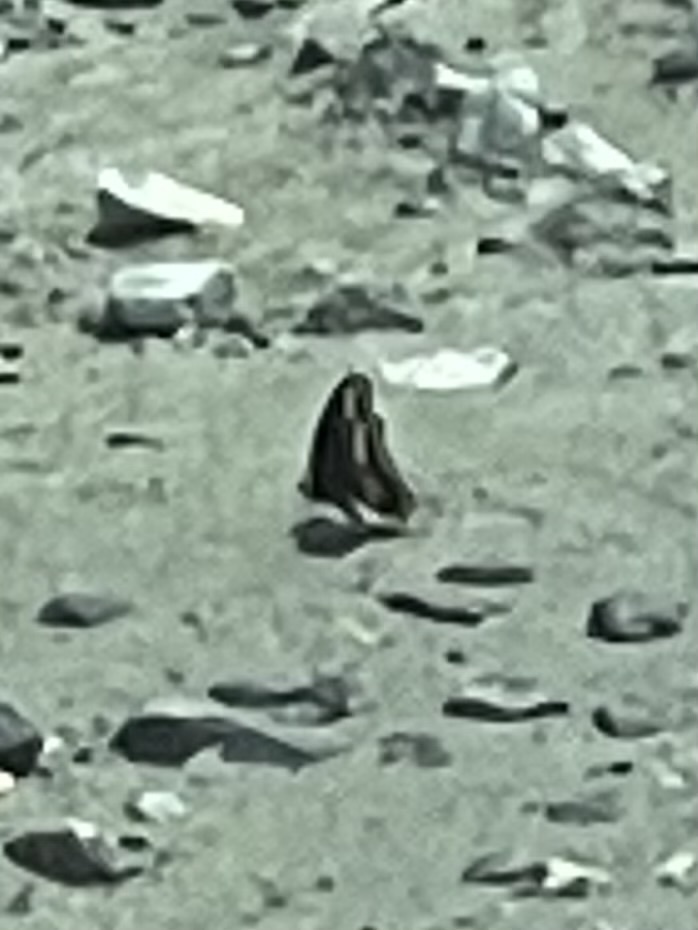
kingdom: Animalia
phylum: Arthropoda
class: Insecta
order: Lepidoptera
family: Papilionidae
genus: Papilio
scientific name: Papilio polyxenes
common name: Black swallowtail
